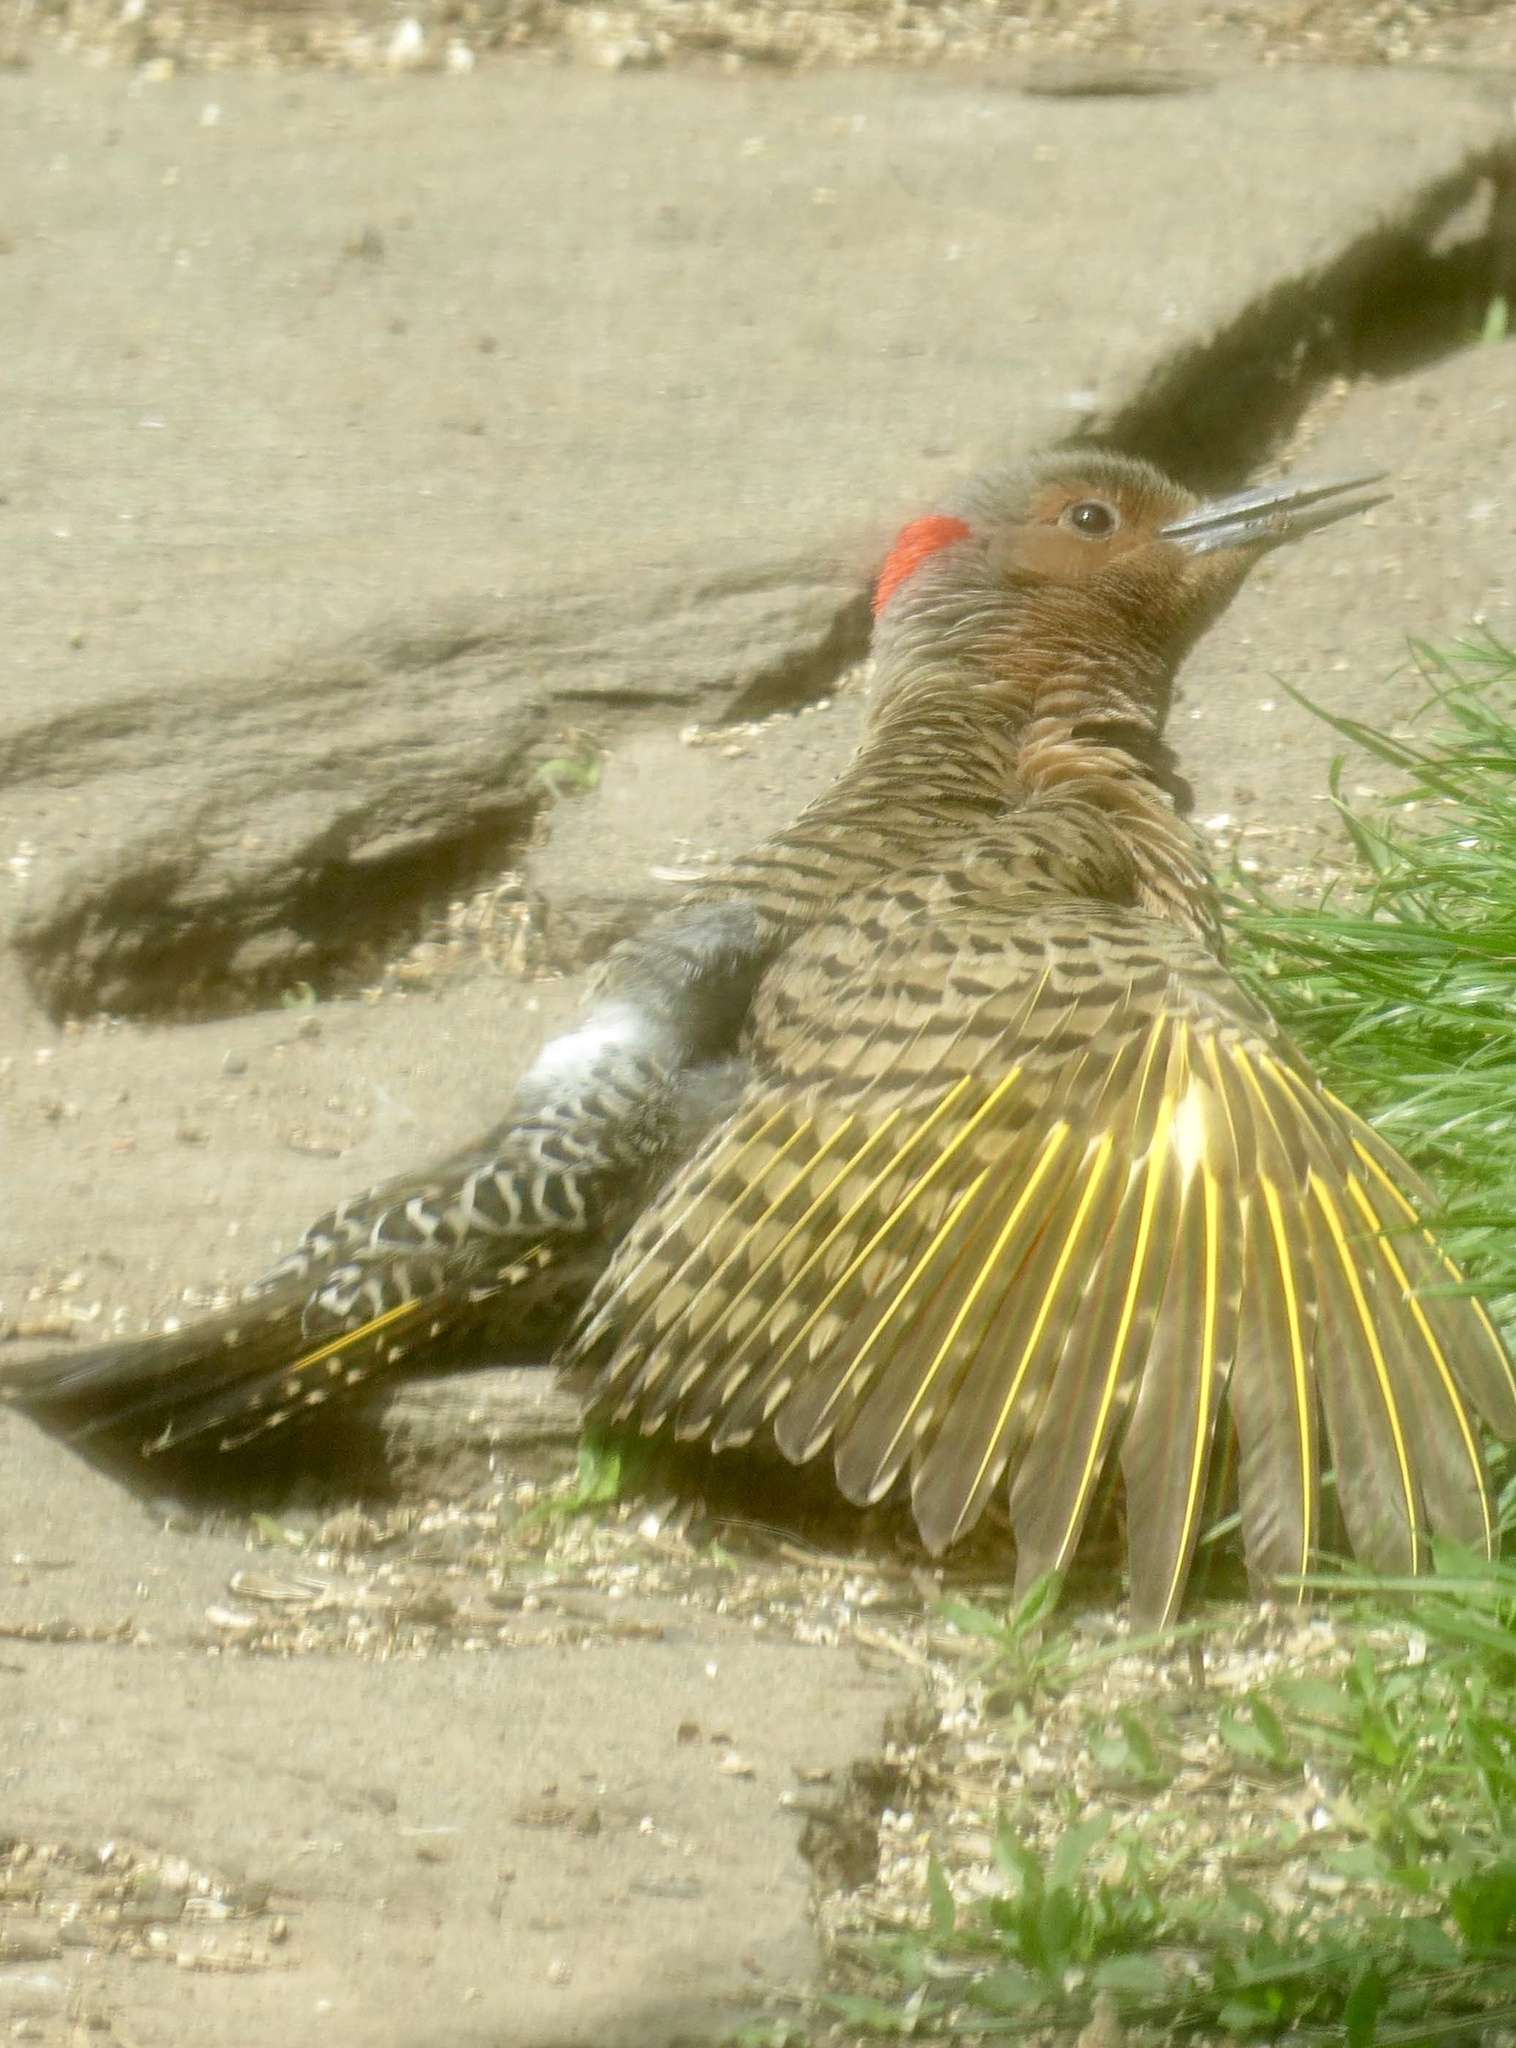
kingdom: Animalia
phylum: Chordata
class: Aves
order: Piciformes
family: Picidae
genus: Colaptes
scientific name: Colaptes auratus
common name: Northern flicker
